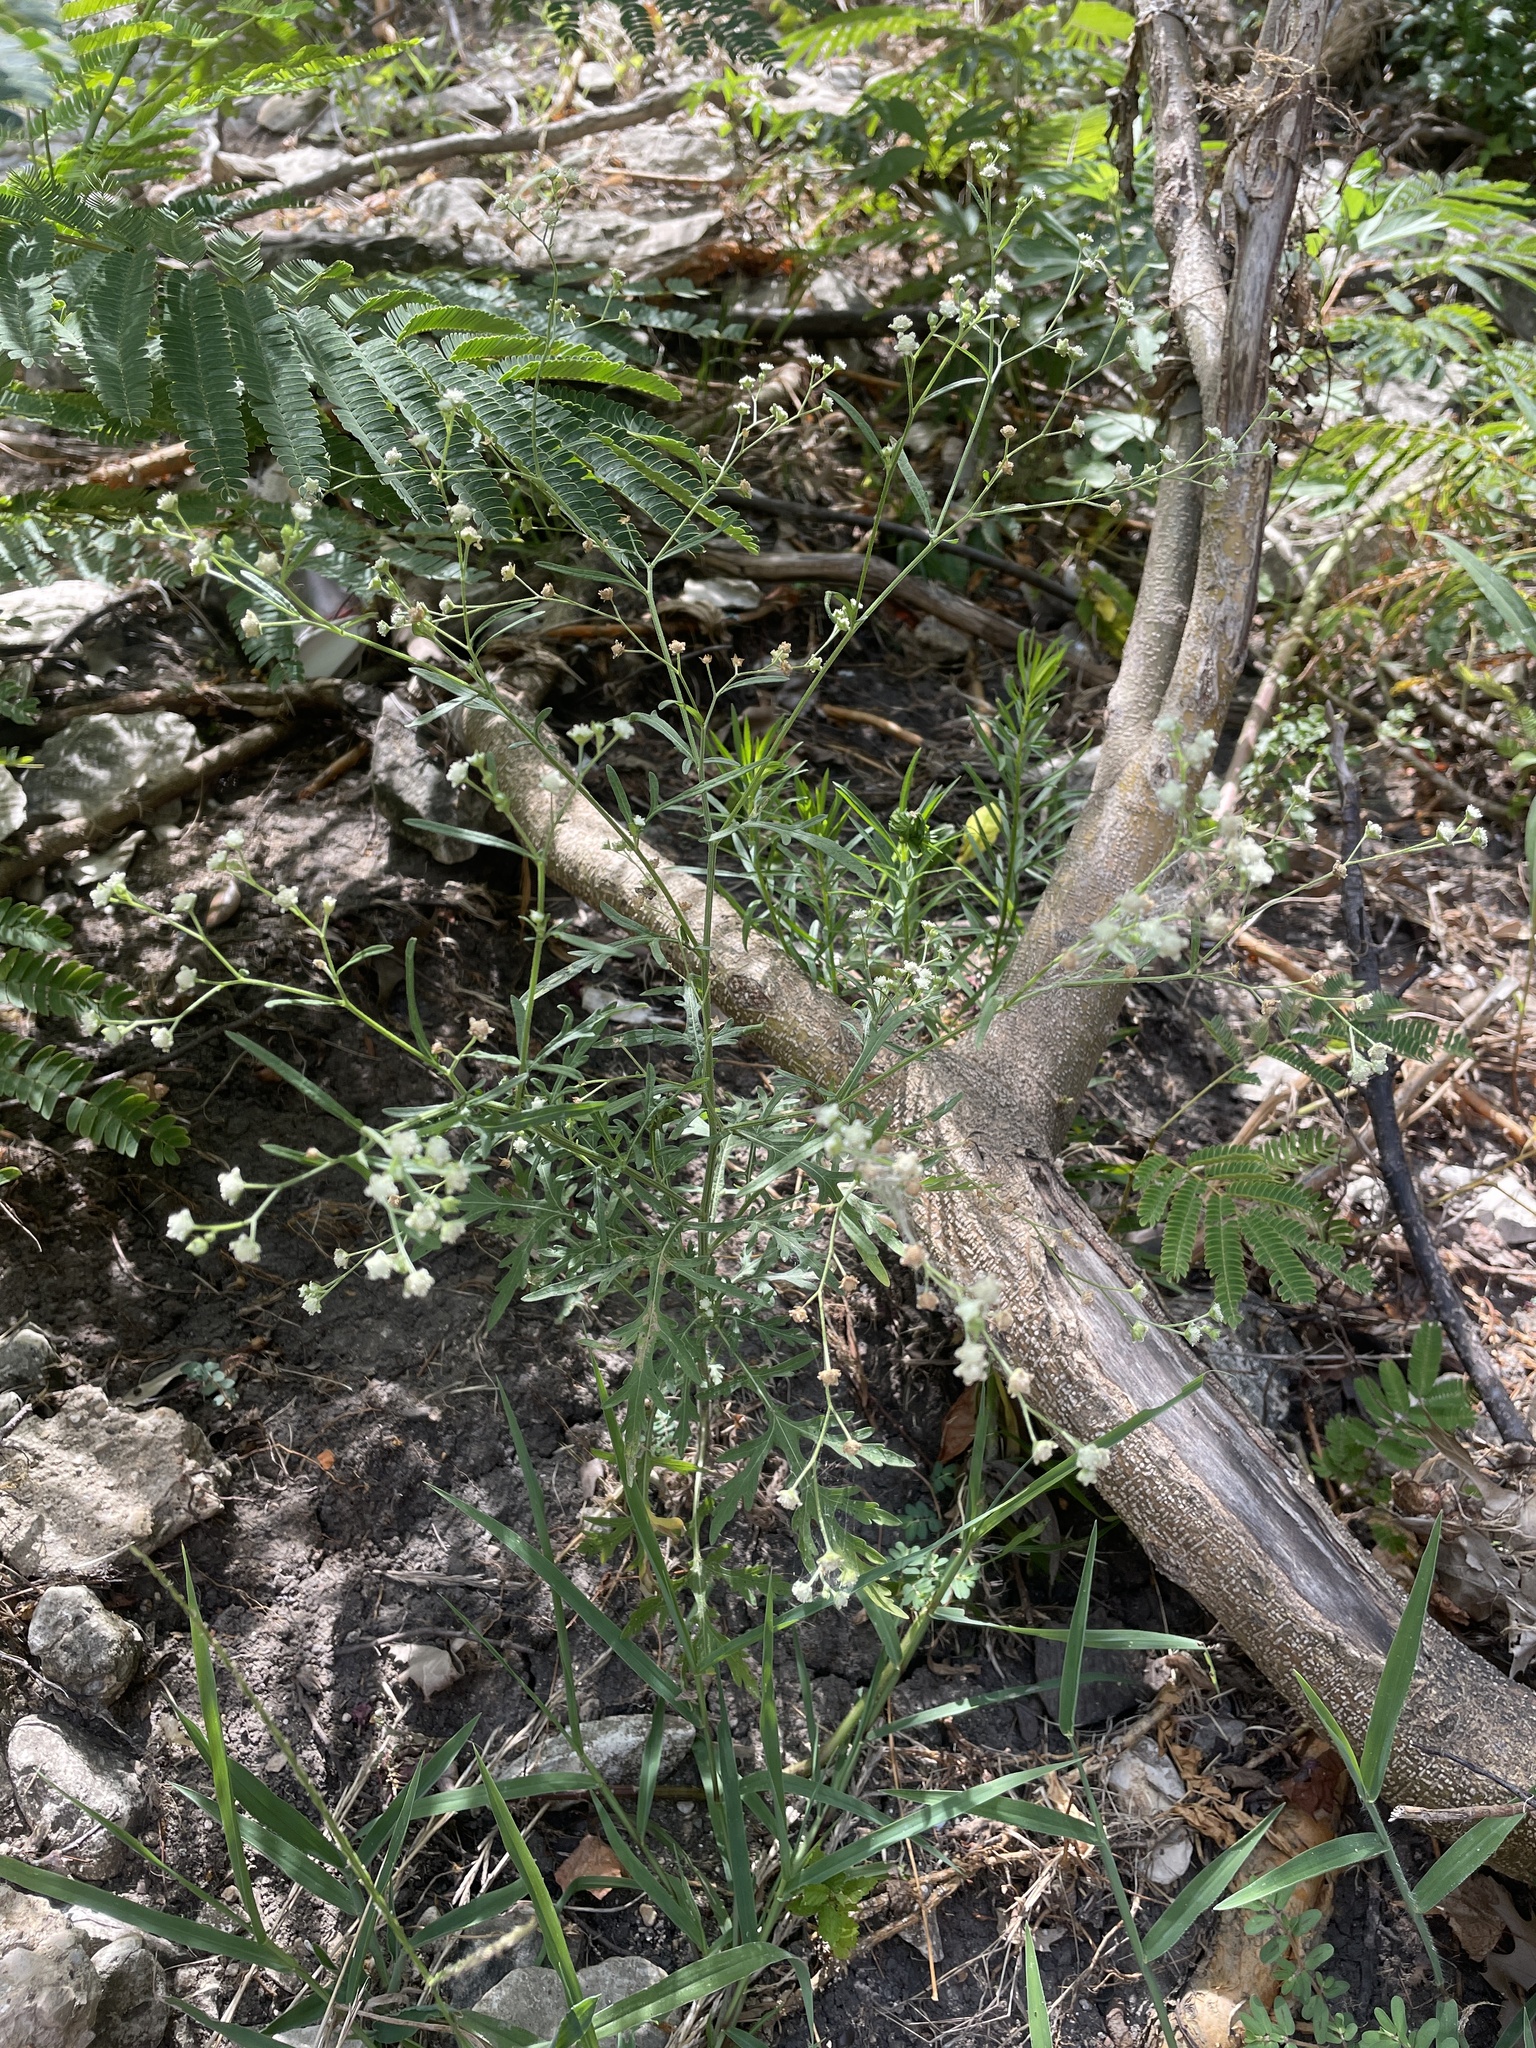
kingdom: Plantae
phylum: Tracheophyta
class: Magnoliopsida
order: Asterales
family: Asteraceae
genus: Parthenium
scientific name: Parthenium hysterophorus
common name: Santa maria feverfew
